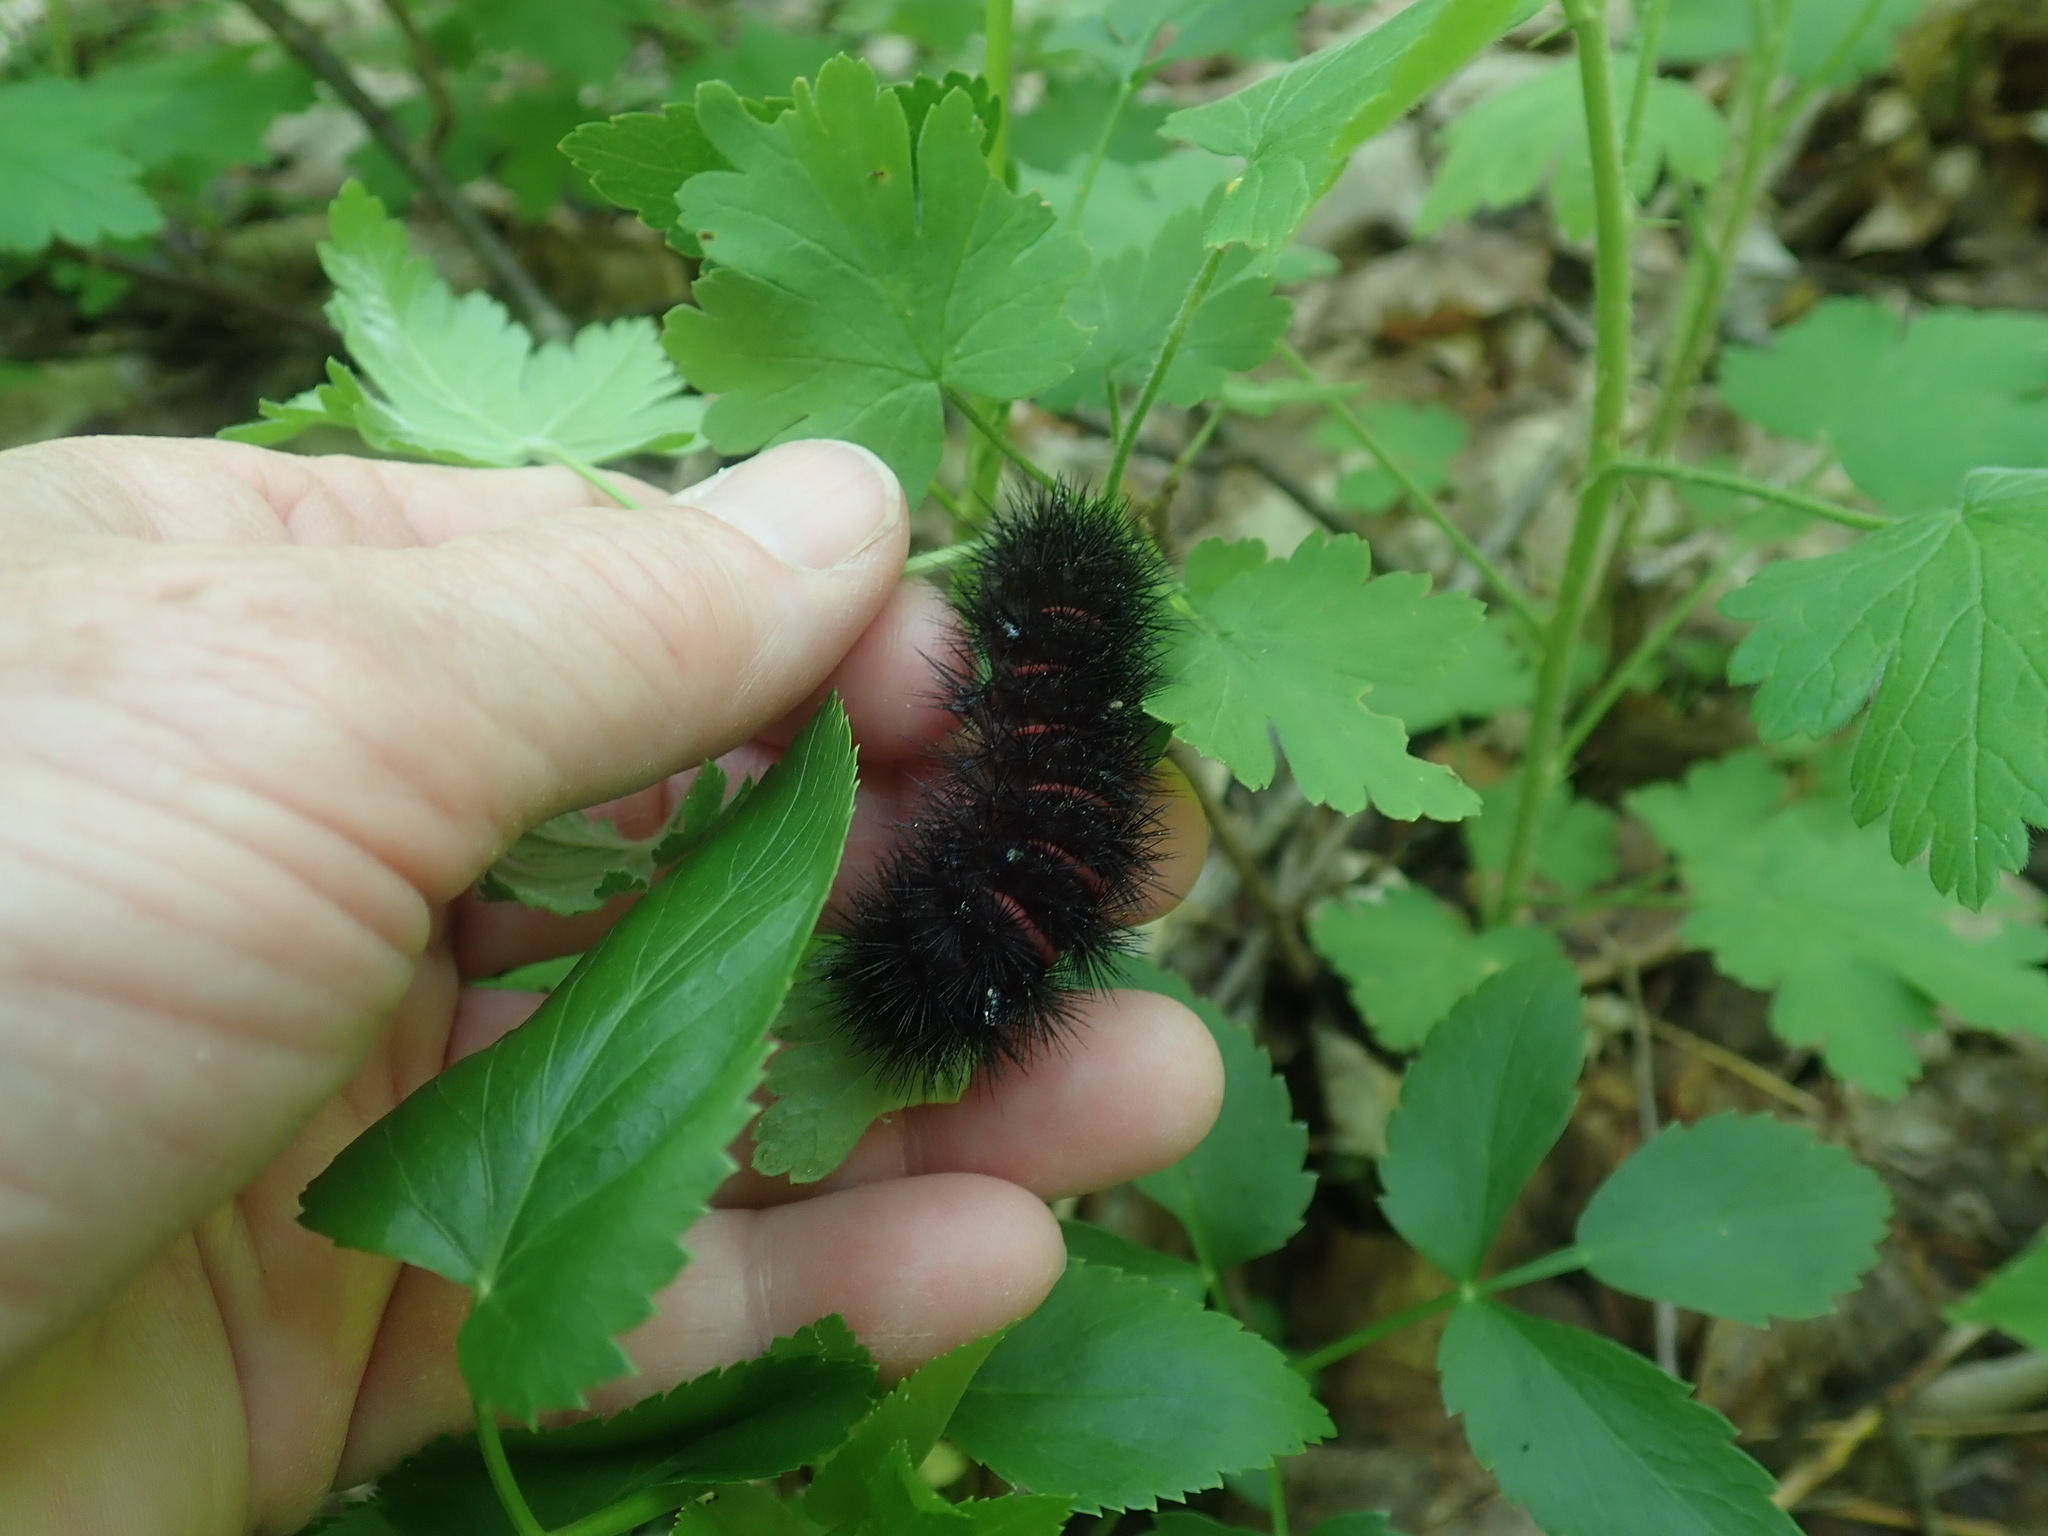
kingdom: Animalia
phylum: Arthropoda
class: Insecta
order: Lepidoptera
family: Erebidae
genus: Hypercompe
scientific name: Hypercompe scribonia
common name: Giant leopard moth
